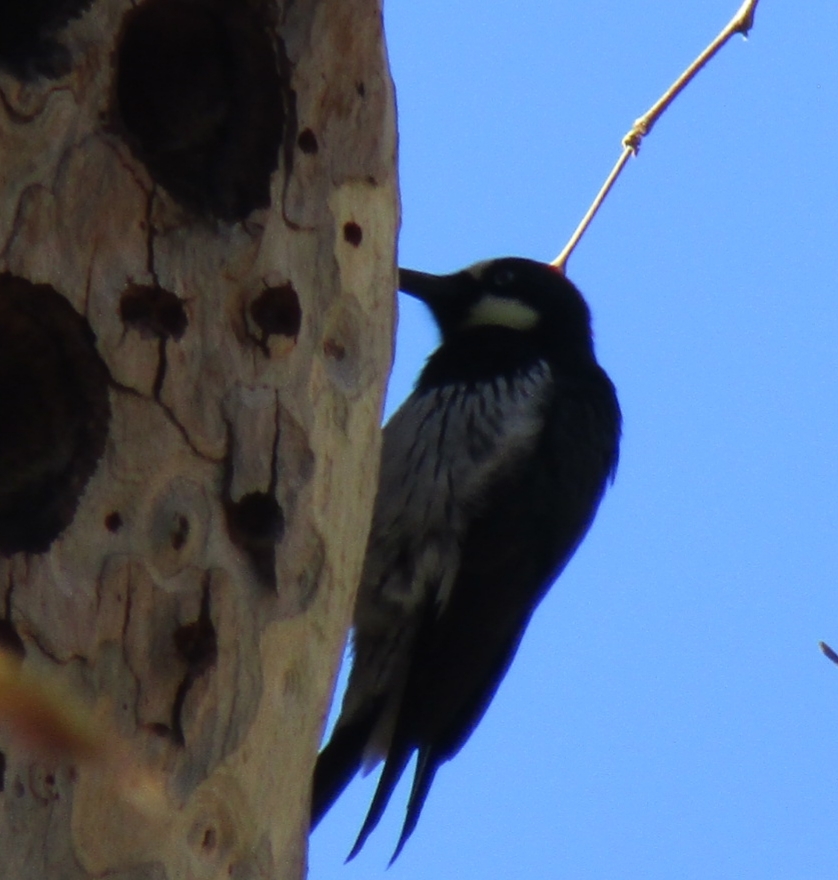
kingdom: Animalia
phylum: Chordata
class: Aves
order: Piciformes
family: Picidae
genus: Melanerpes
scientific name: Melanerpes formicivorus
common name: Acorn woodpecker
